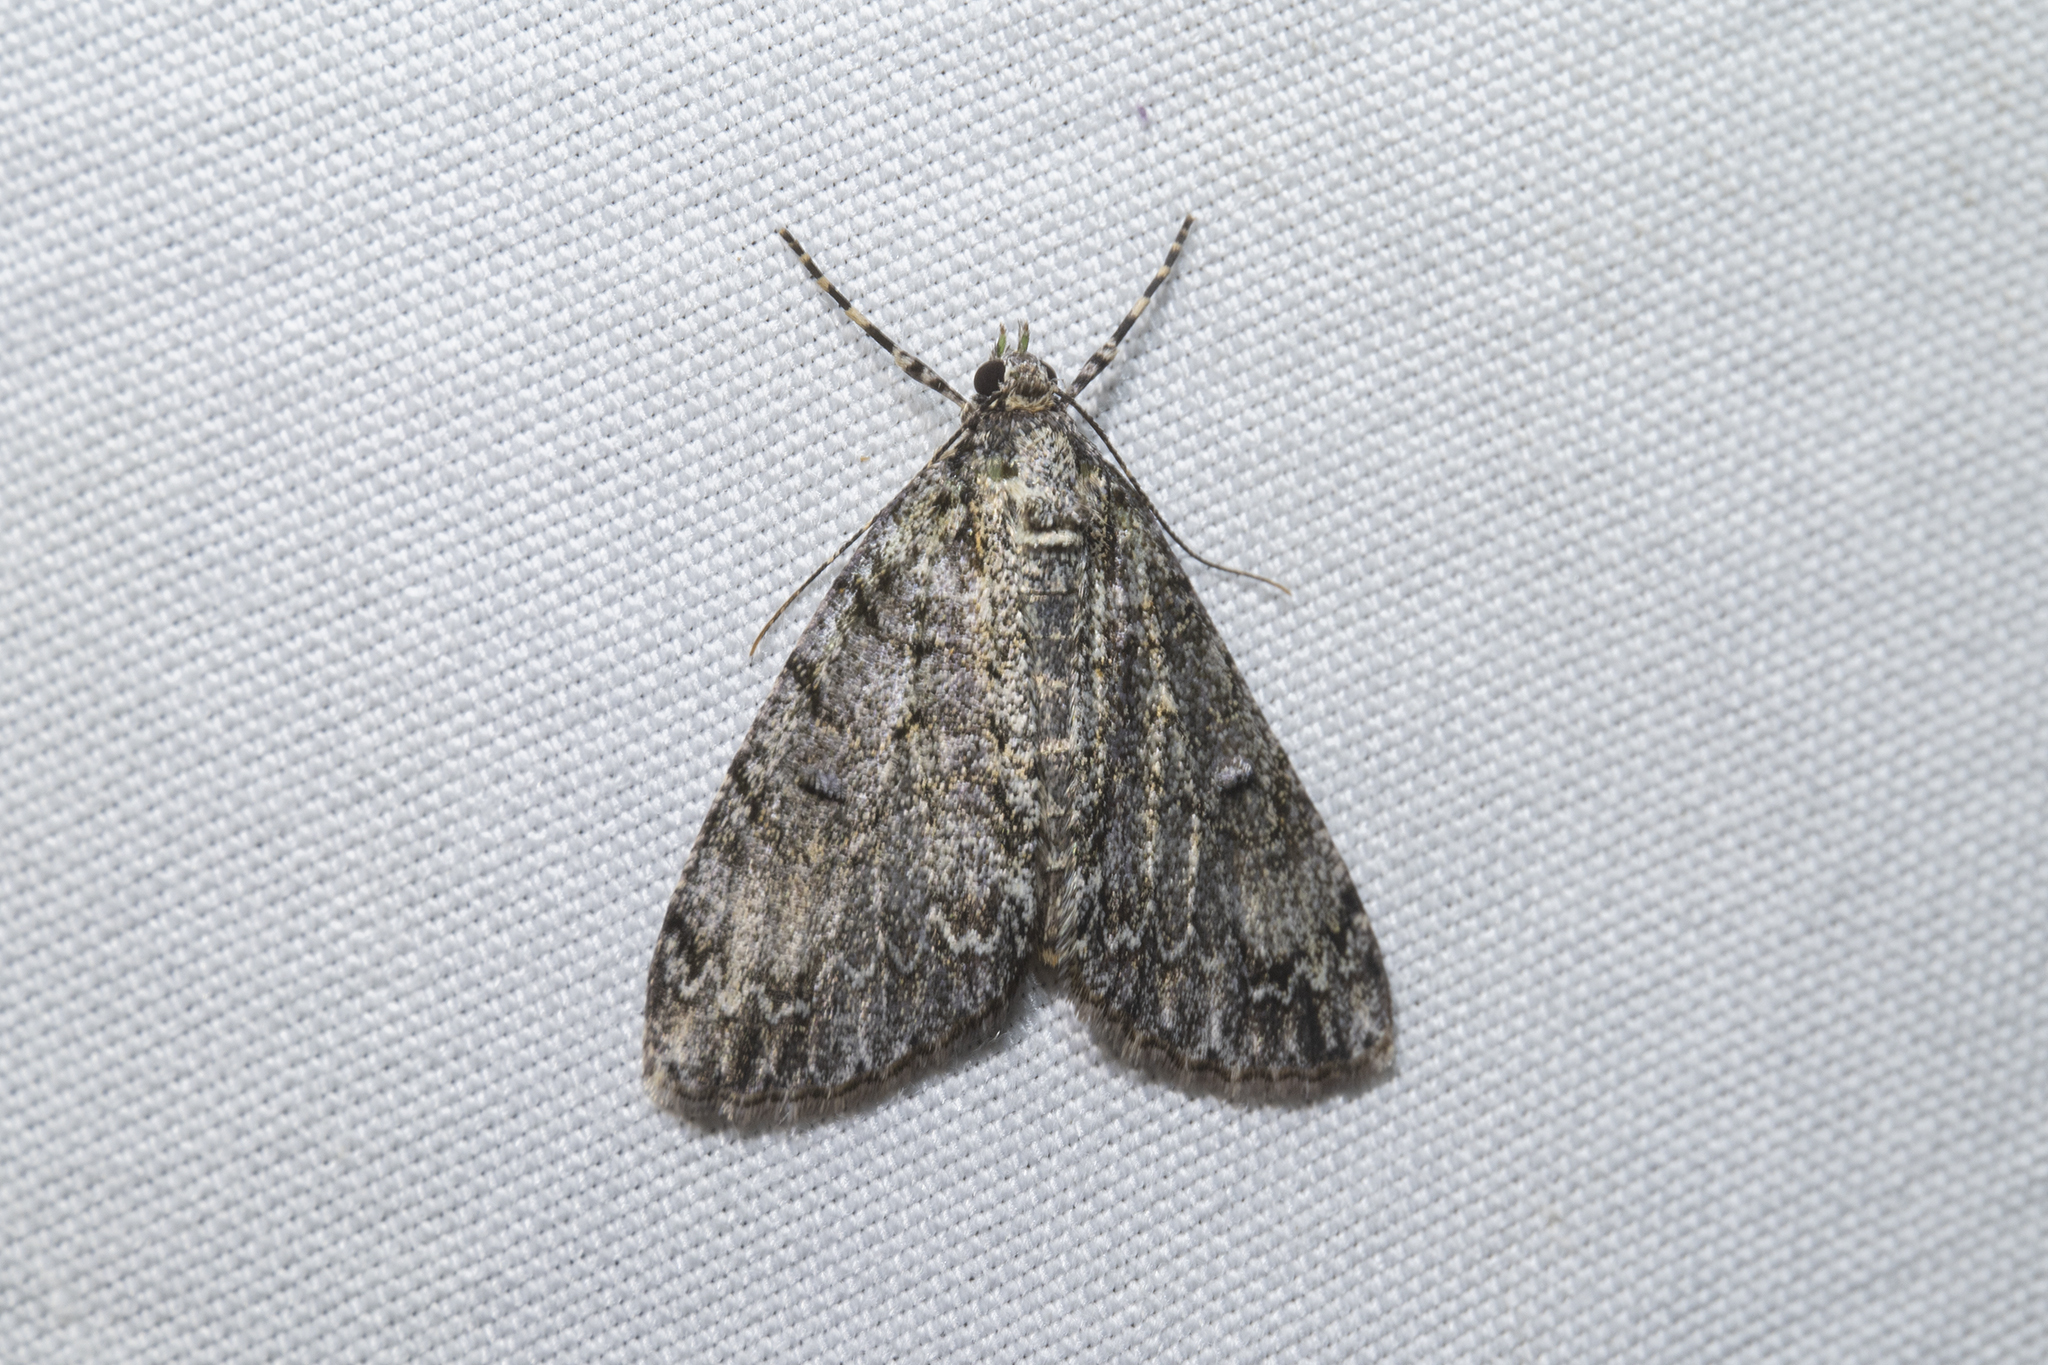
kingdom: Animalia
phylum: Arthropoda
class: Insecta
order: Lepidoptera
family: Geometridae
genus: Pseudocoremia
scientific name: Pseudocoremia suavis
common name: Common forest looper
